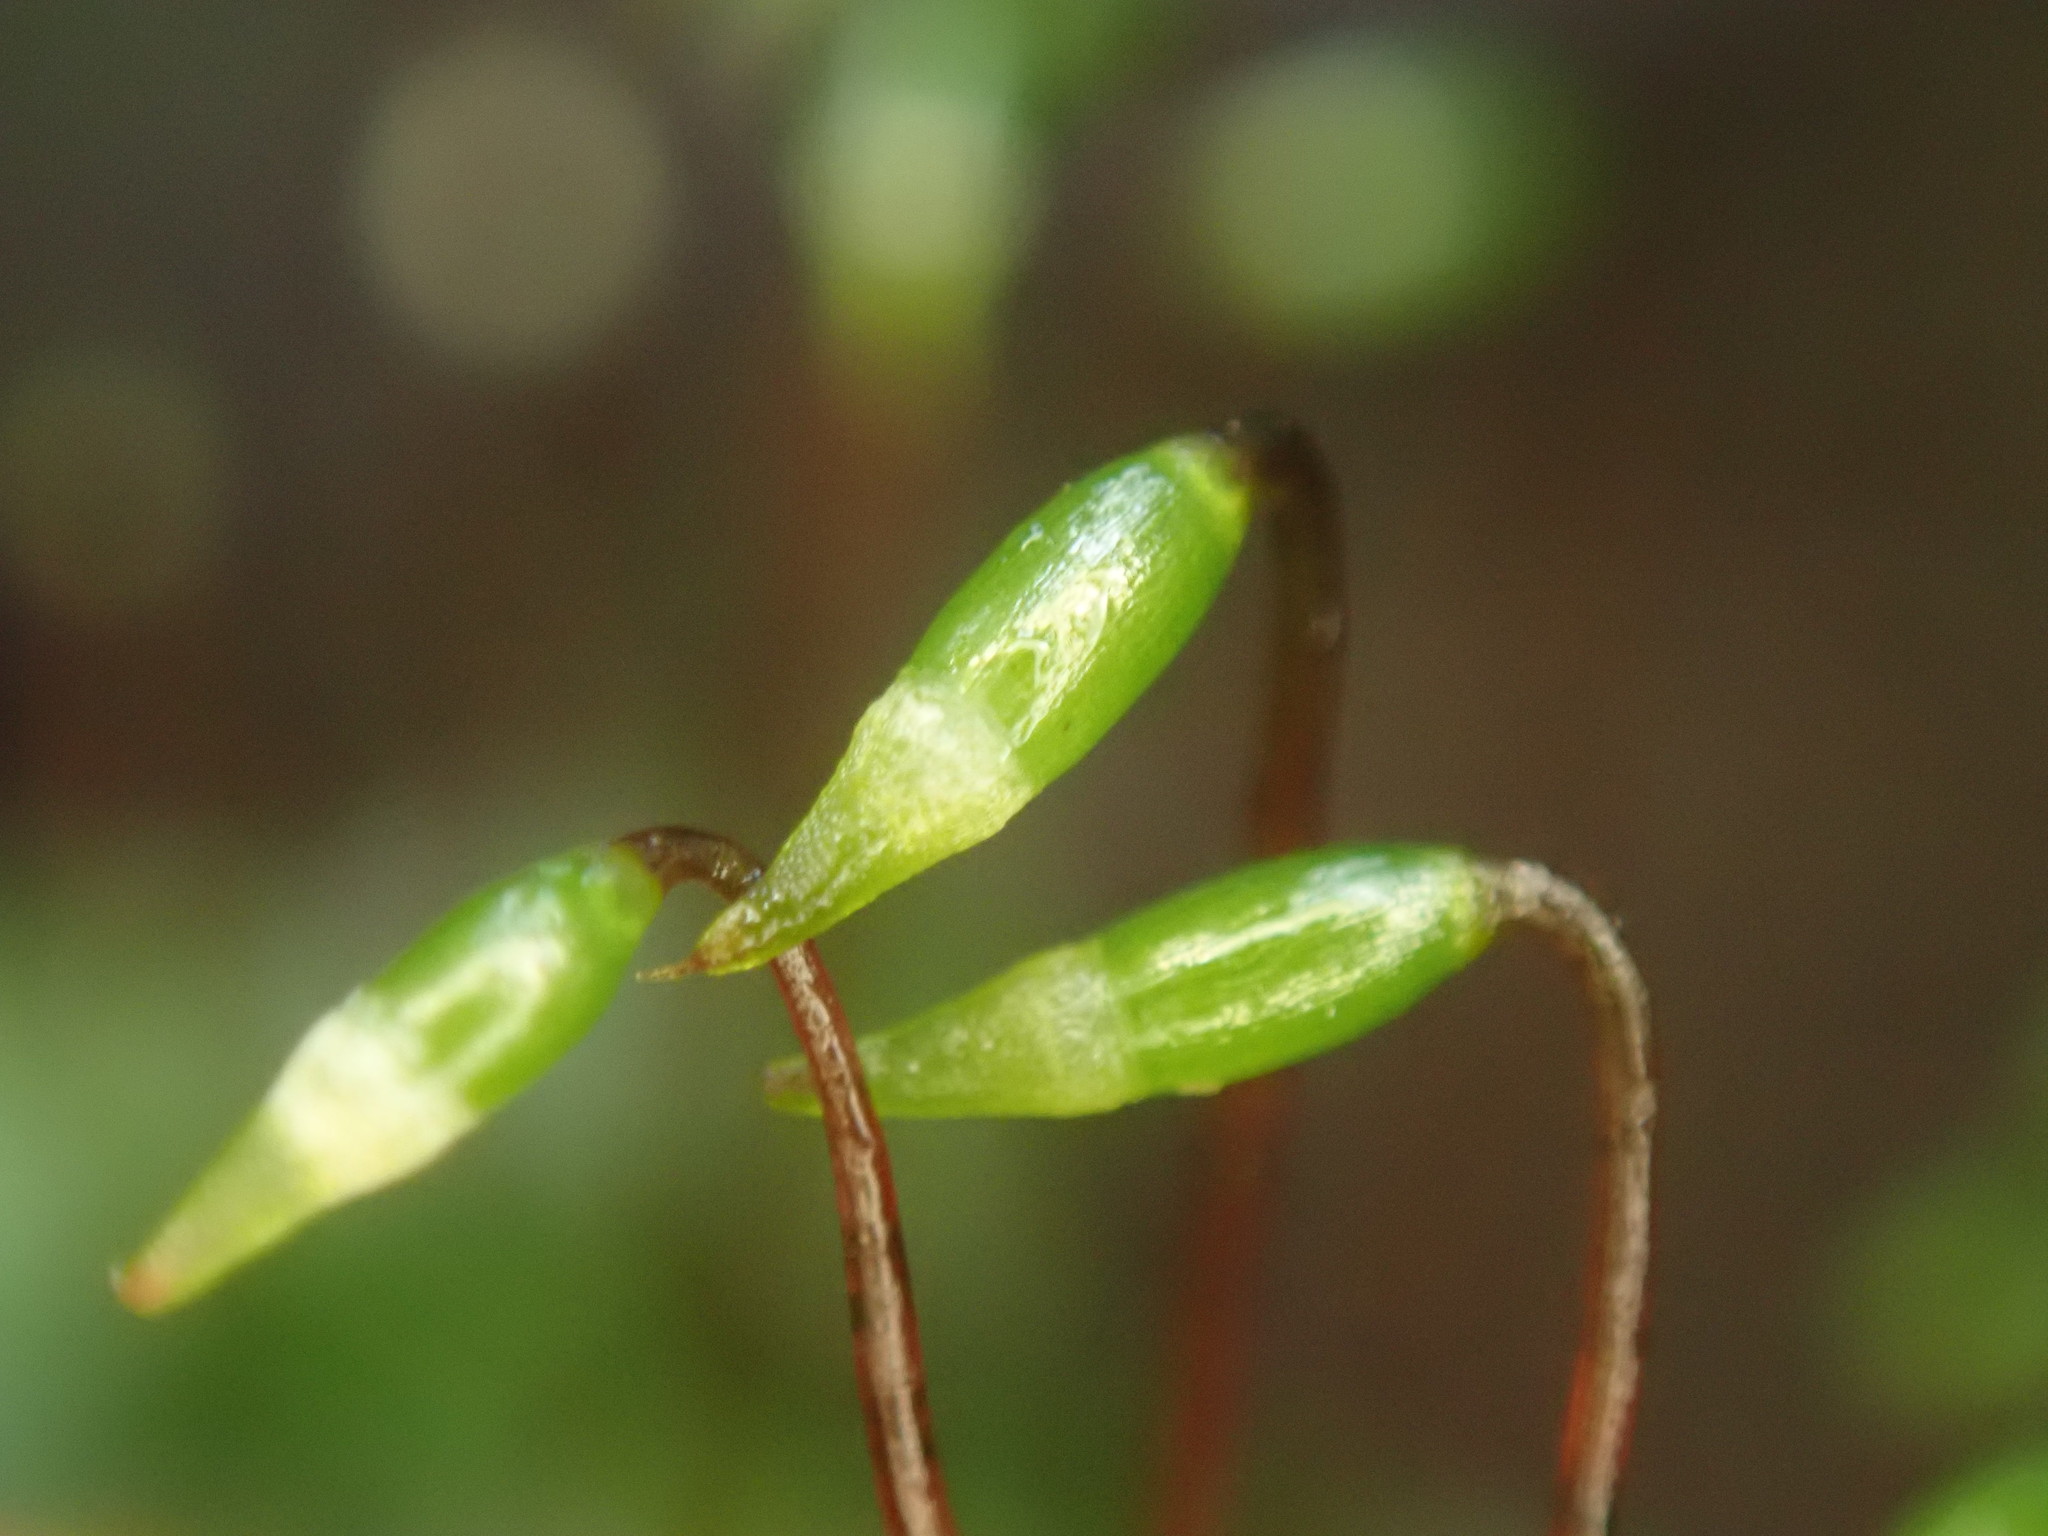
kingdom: Plantae
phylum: Bryophyta
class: Bryopsida
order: Hookeriales
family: Hookeriaceae
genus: Hookeria
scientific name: Hookeria lucens
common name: Shining hookeria
